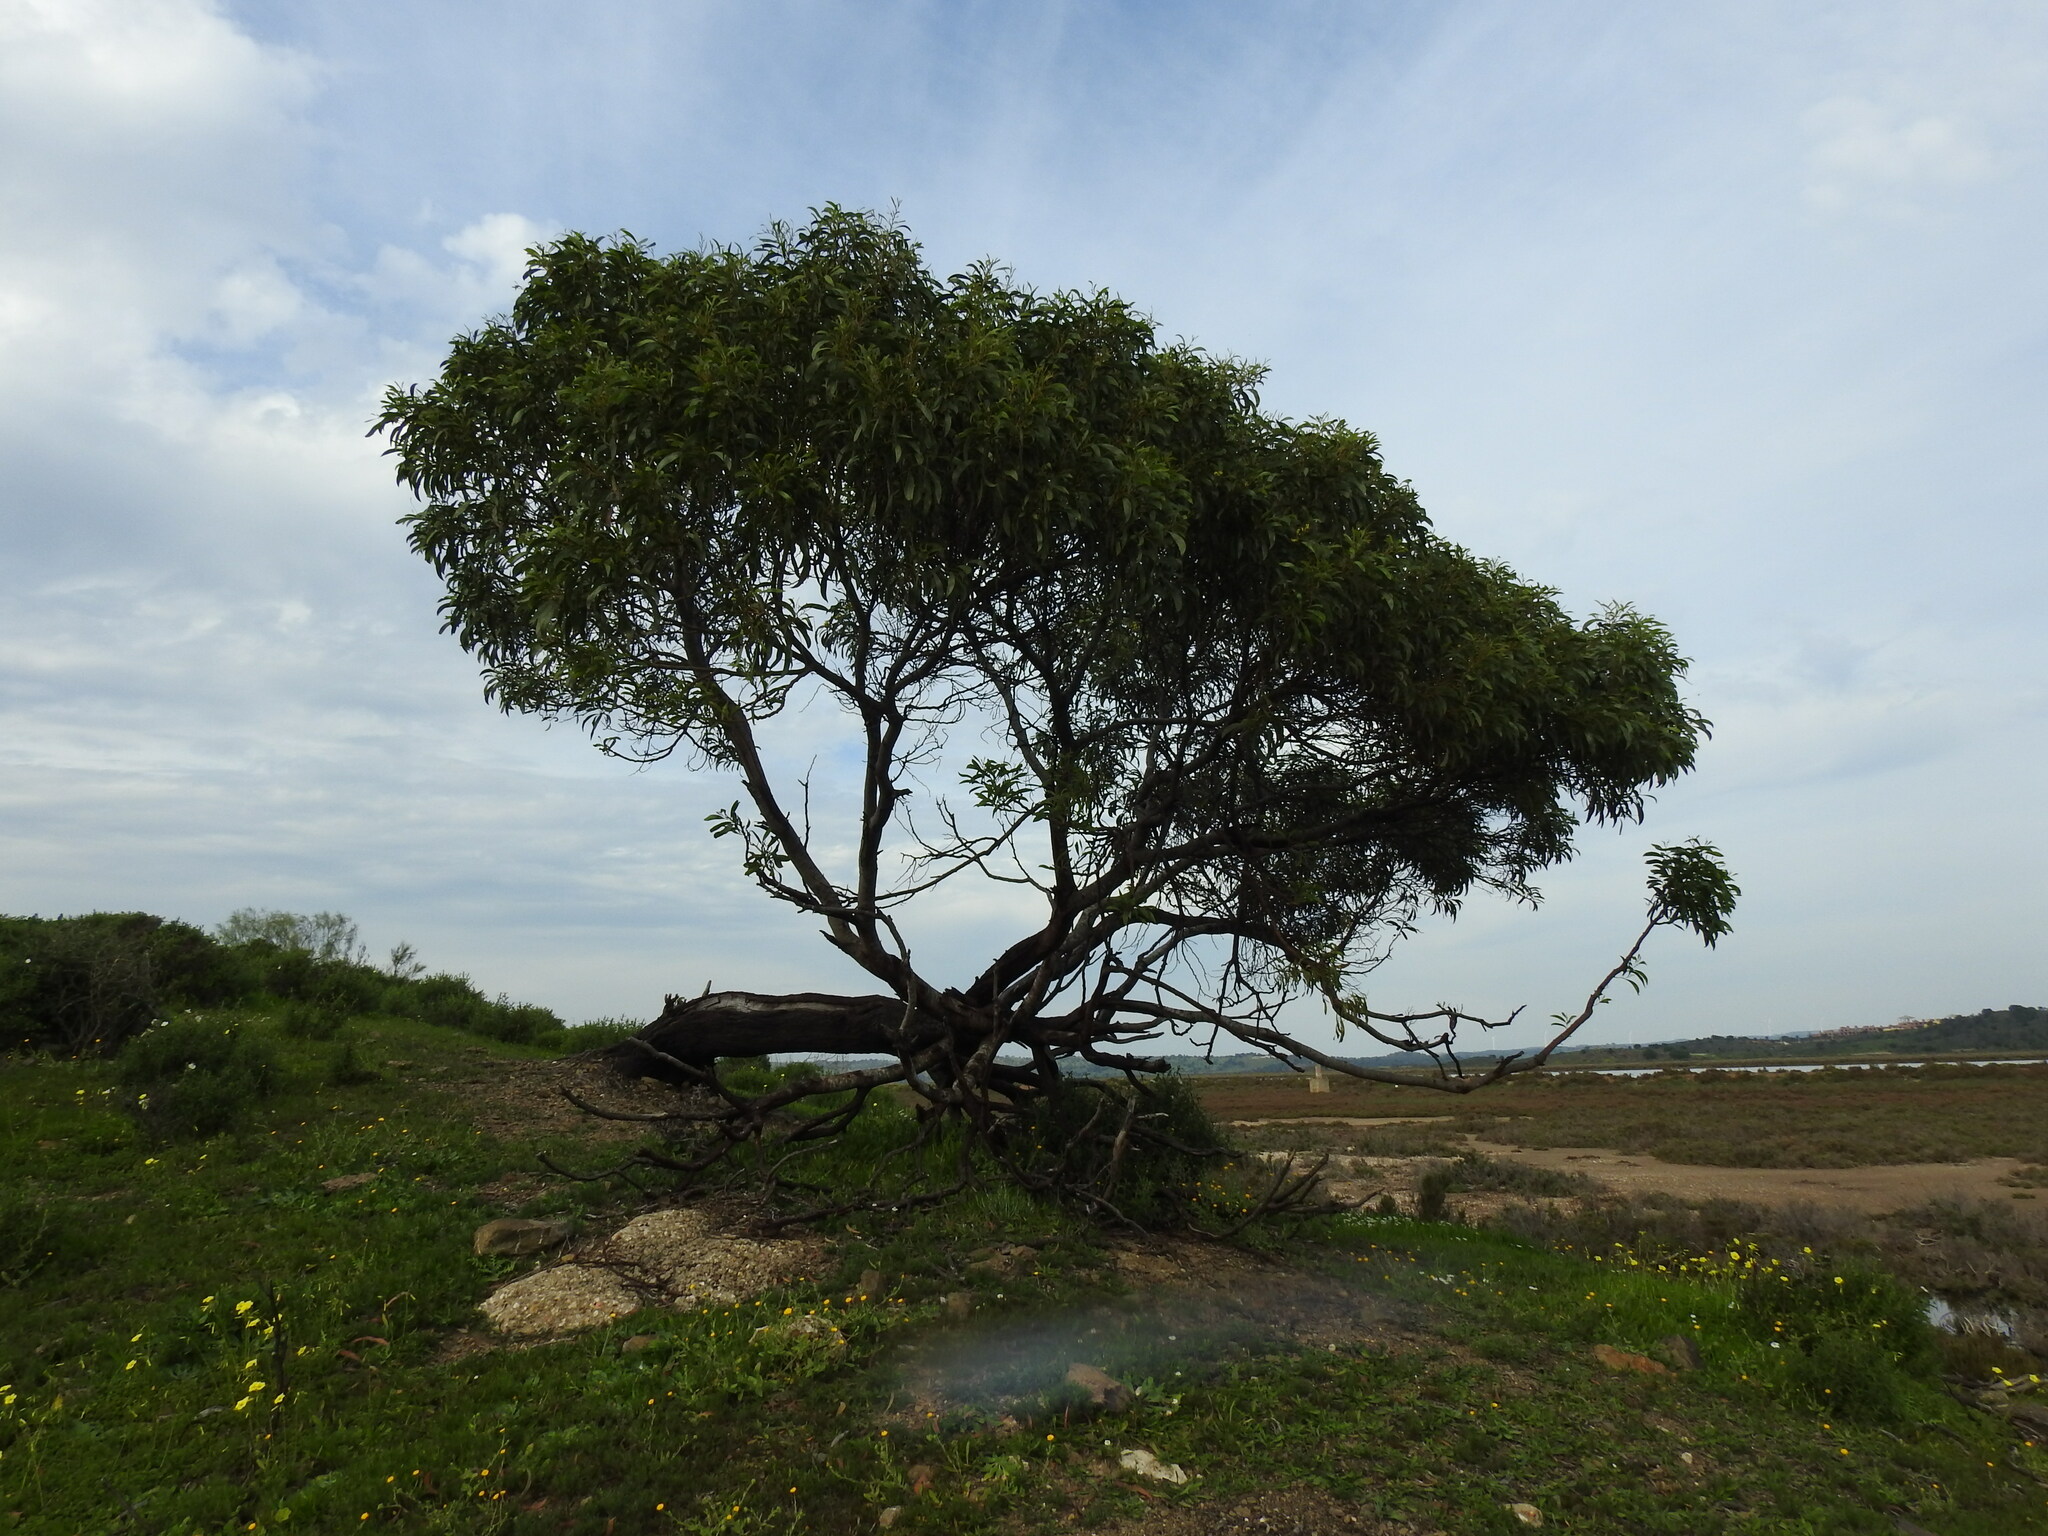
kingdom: Plantae
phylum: Tracheophyta
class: Magnoliopsida
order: Fabales
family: Fabaceae
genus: Acacia
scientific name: Acacia pycnantha
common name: Golden wattle
